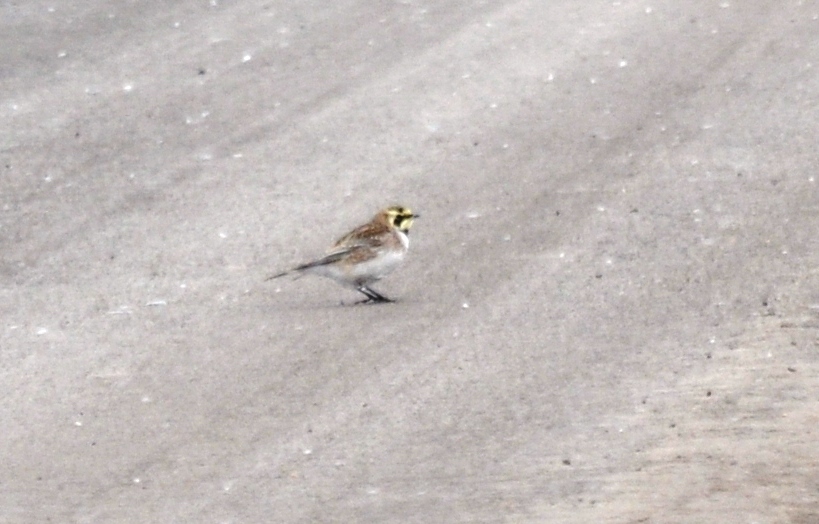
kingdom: Animalia
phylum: Chordata
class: Aves
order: Passeriformes
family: Alaudidae
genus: Eremophila
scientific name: Eremophila alpestris
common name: Horned lark
